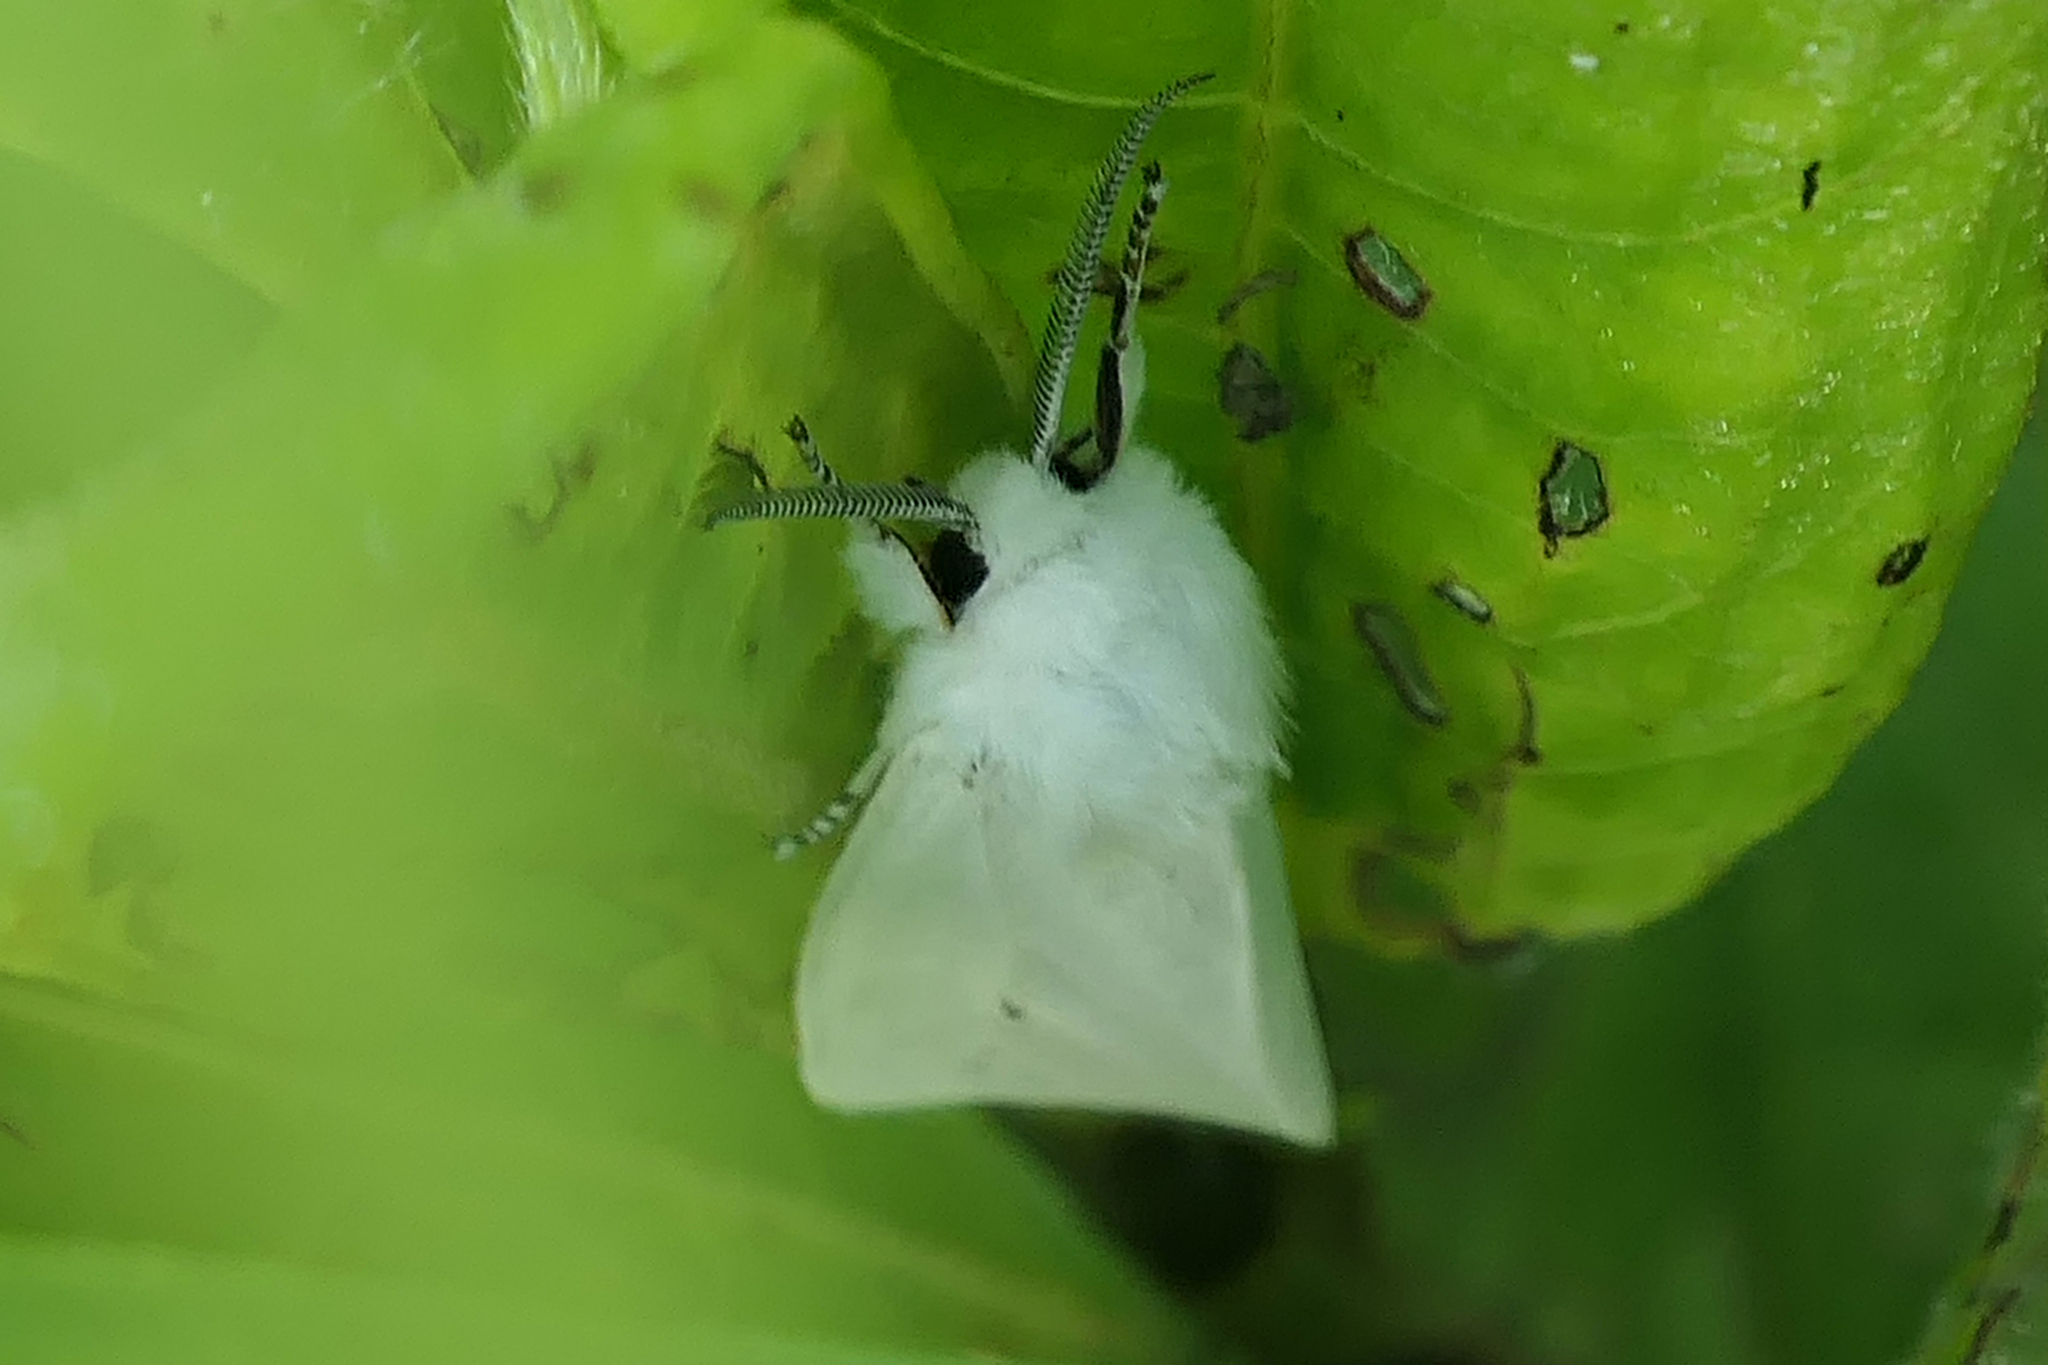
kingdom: Animalia
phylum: Arthropoda
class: Insecta
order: Lepidoptera
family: Erebidae
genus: Spilosoma
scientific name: Spilosoma virginica
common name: Virginia tiger moth
